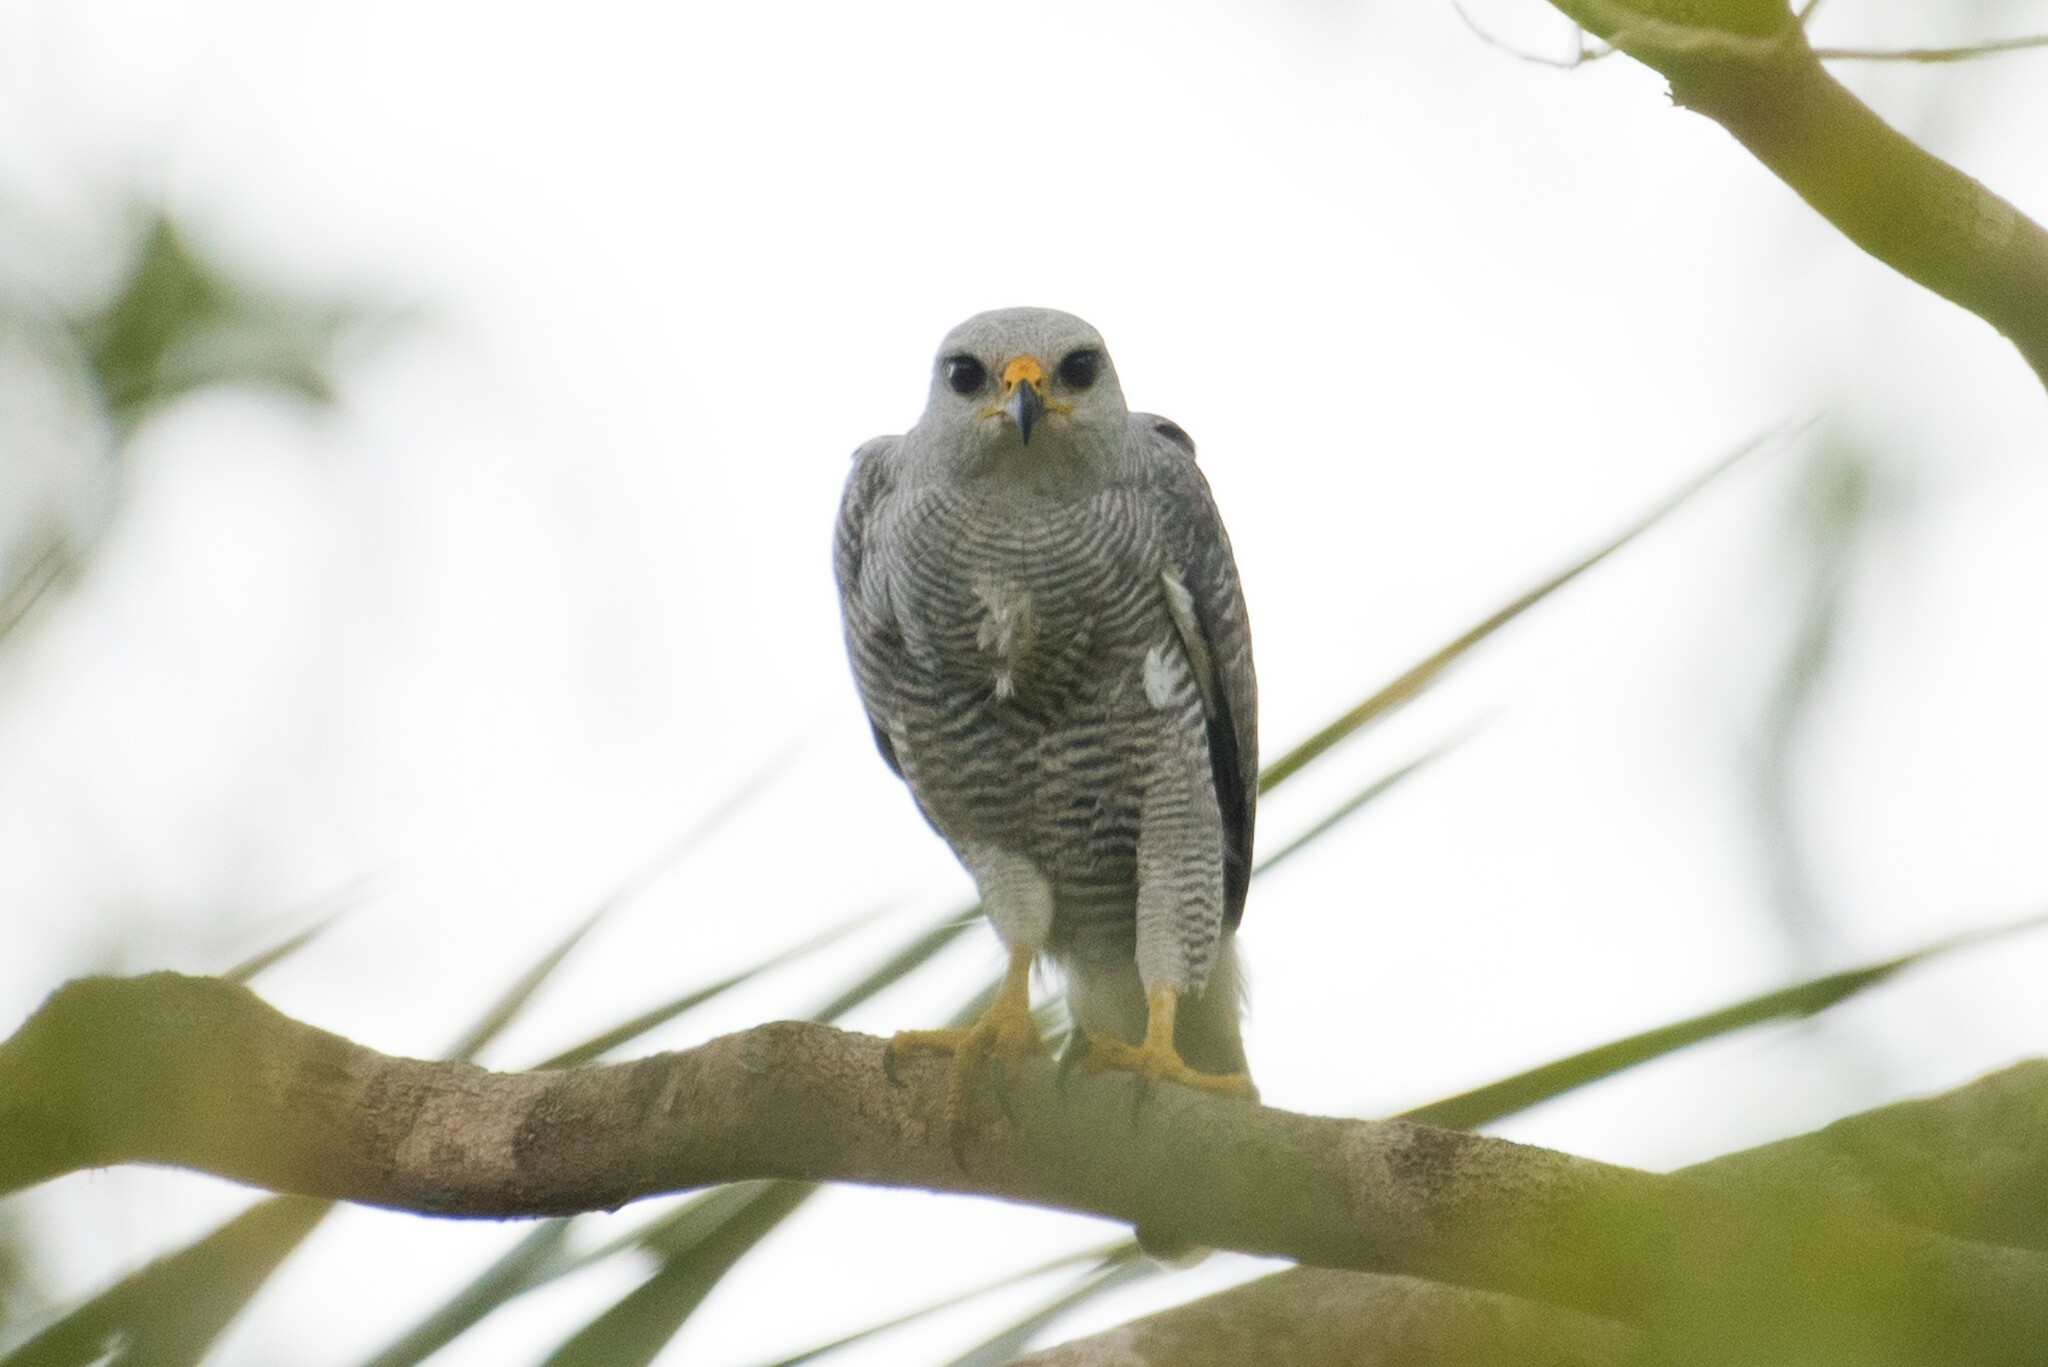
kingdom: Animalia
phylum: Chordata
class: Aves
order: Accipitriformes
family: Accipitridae
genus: Buteo
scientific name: Buteo nitidus
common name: Grey-lined hawk
